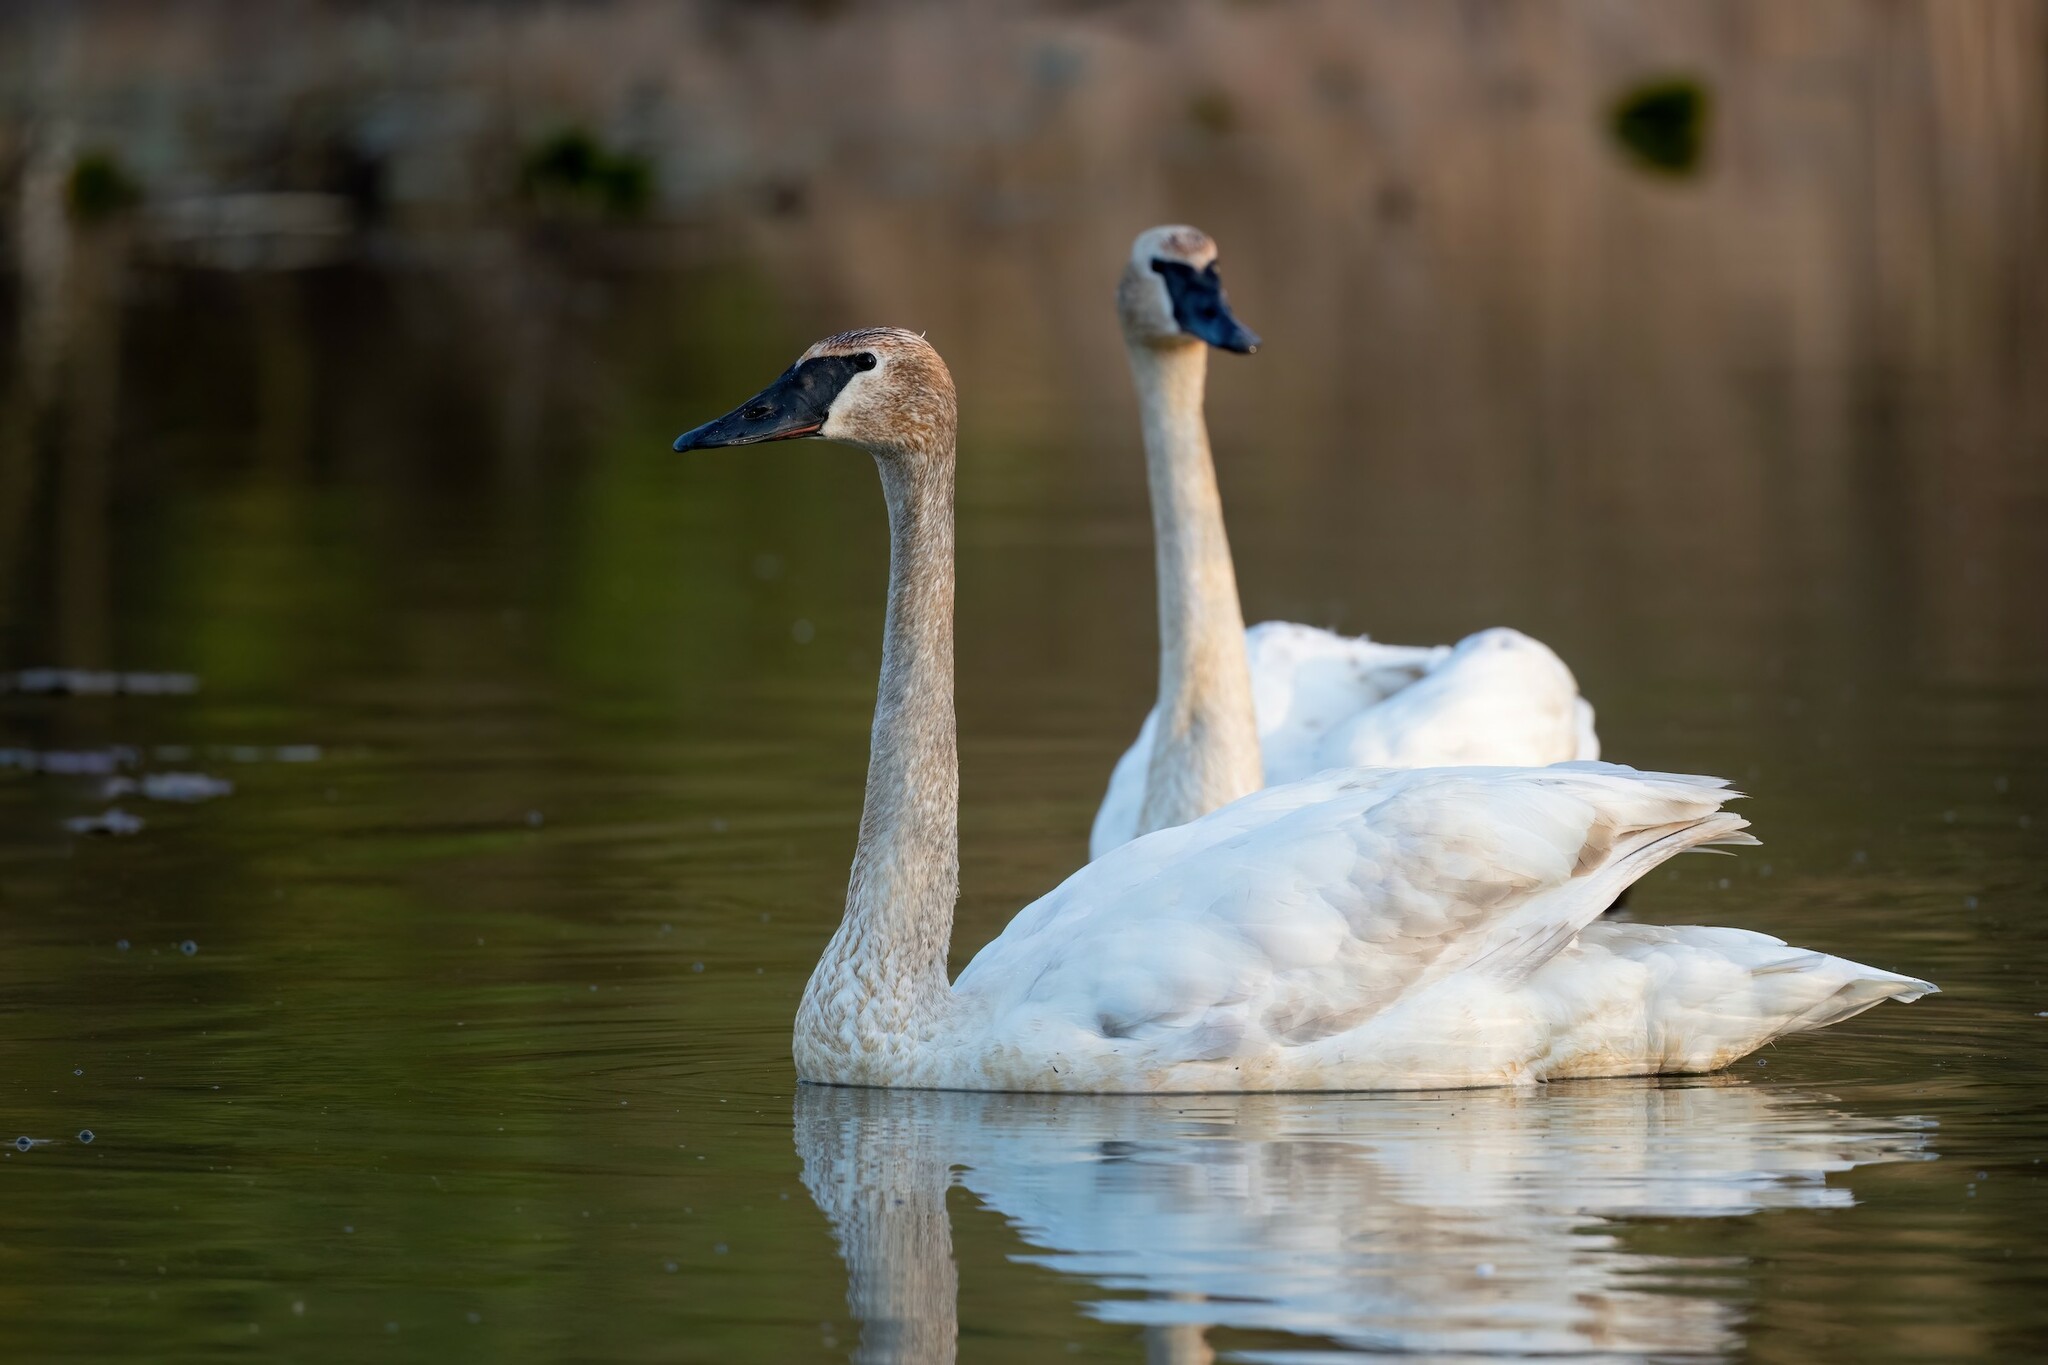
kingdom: Animalia
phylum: Chordata
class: Aves
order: Anseriformes
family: Anatidae
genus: Cygnus
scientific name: Cygnus buccinator
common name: Trumpeter swan
